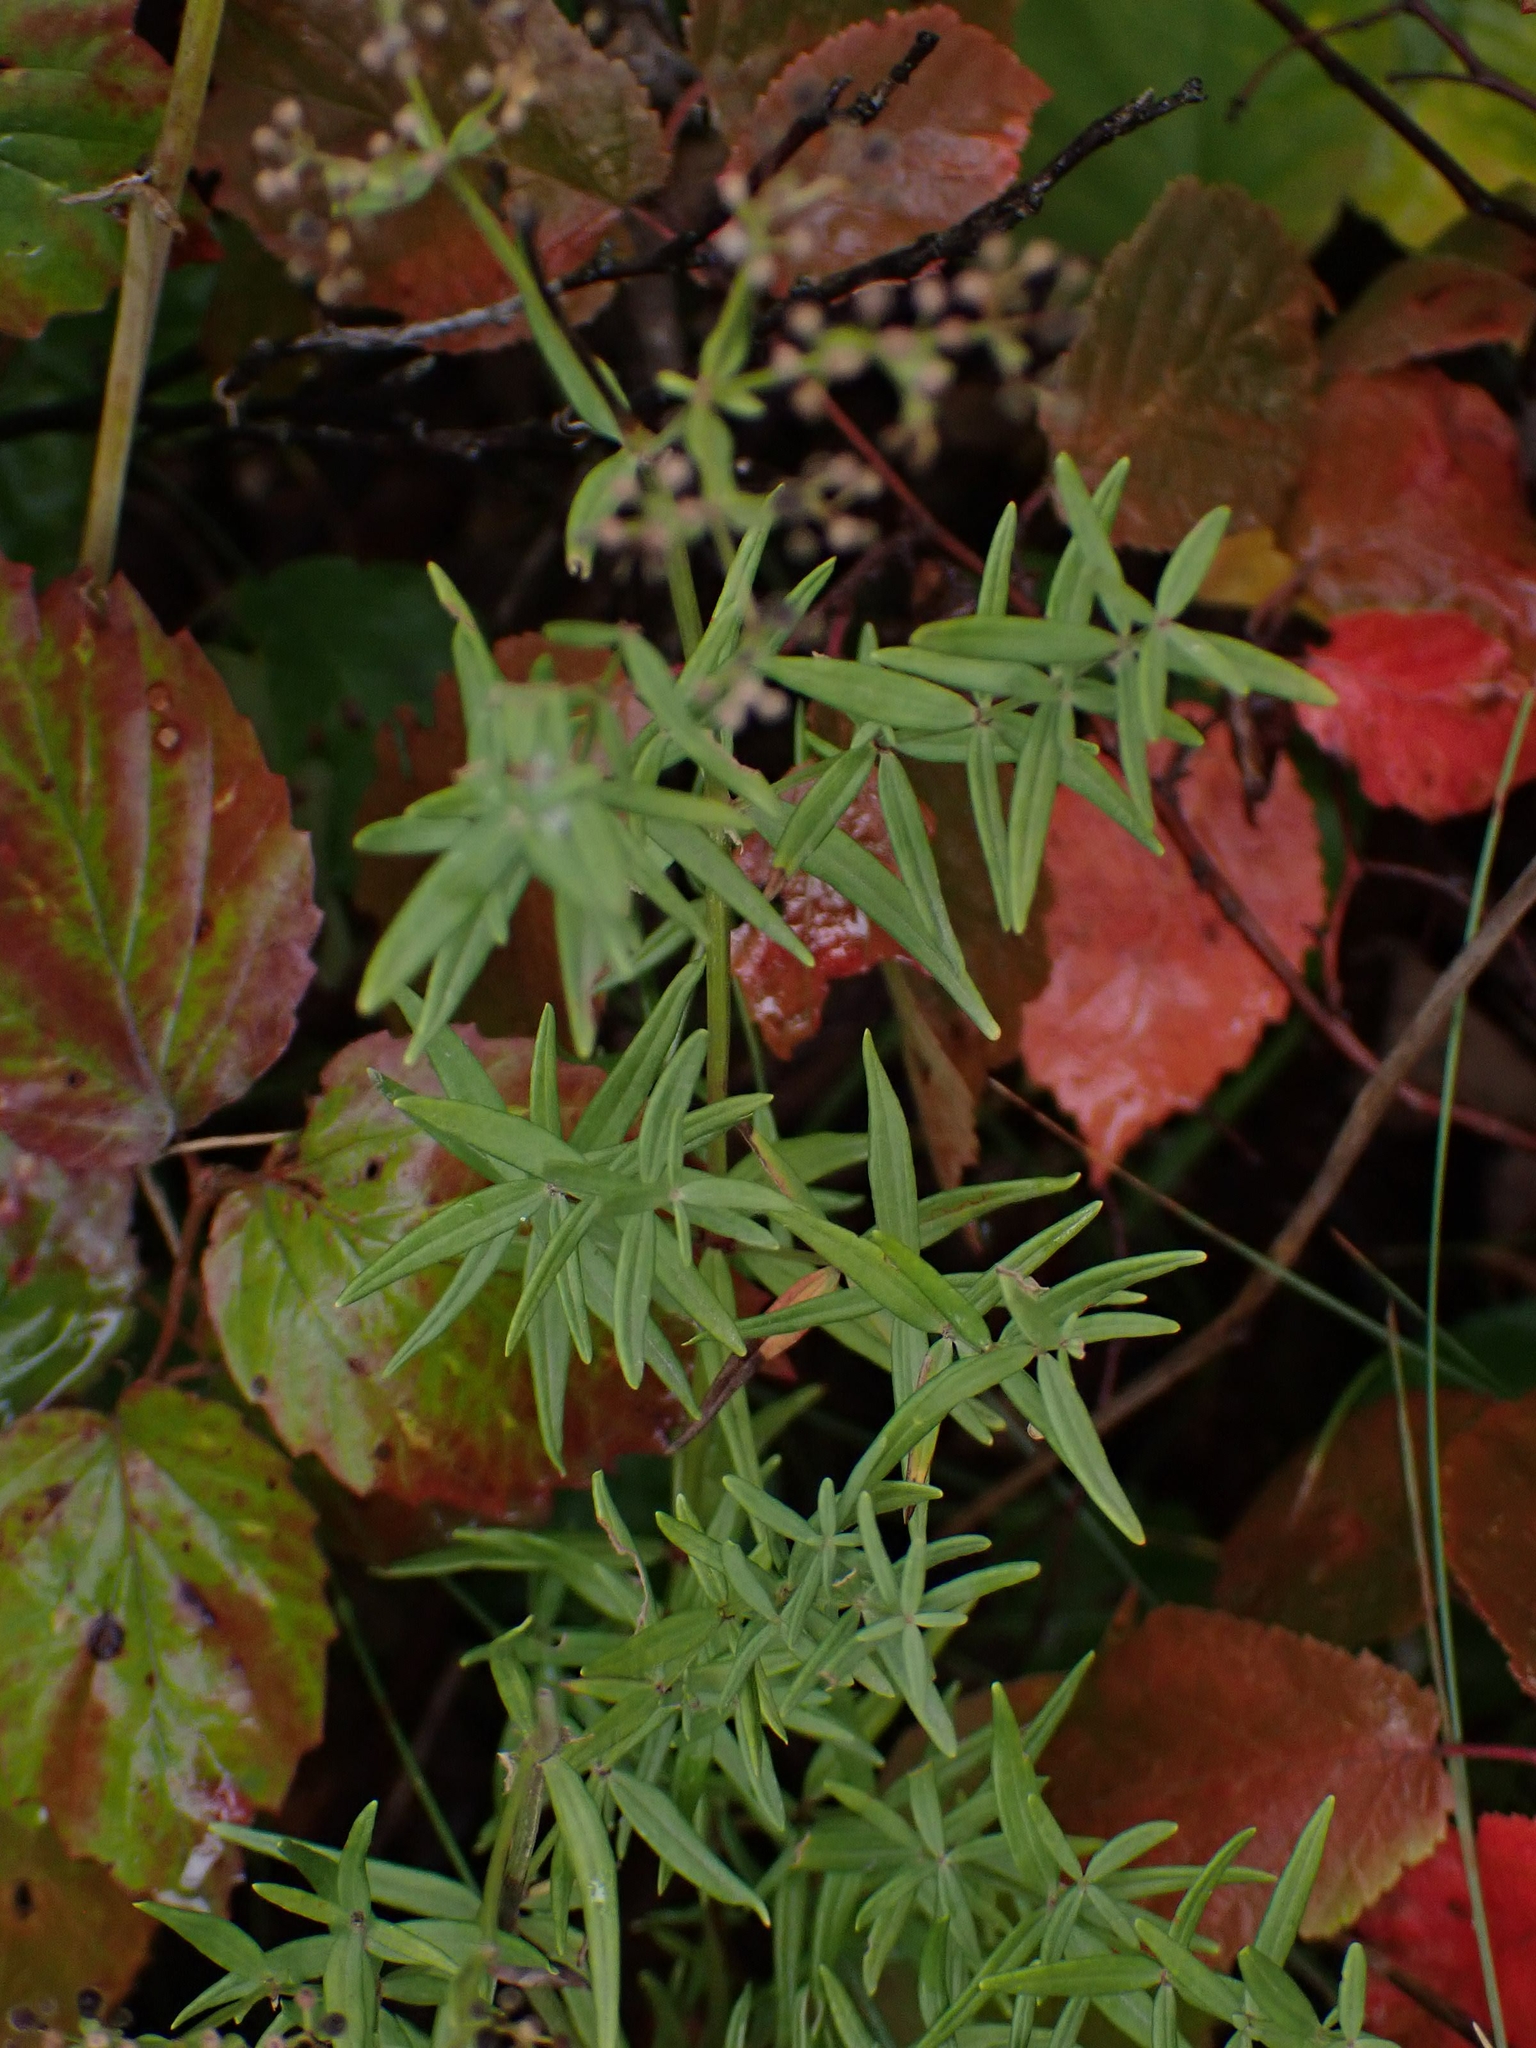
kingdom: Plantae
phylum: Tracheophyta
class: Magnoliopsida
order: Gentianales
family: Rubiaceae
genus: Galium
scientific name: Galium boreale
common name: Northern bedstraw
